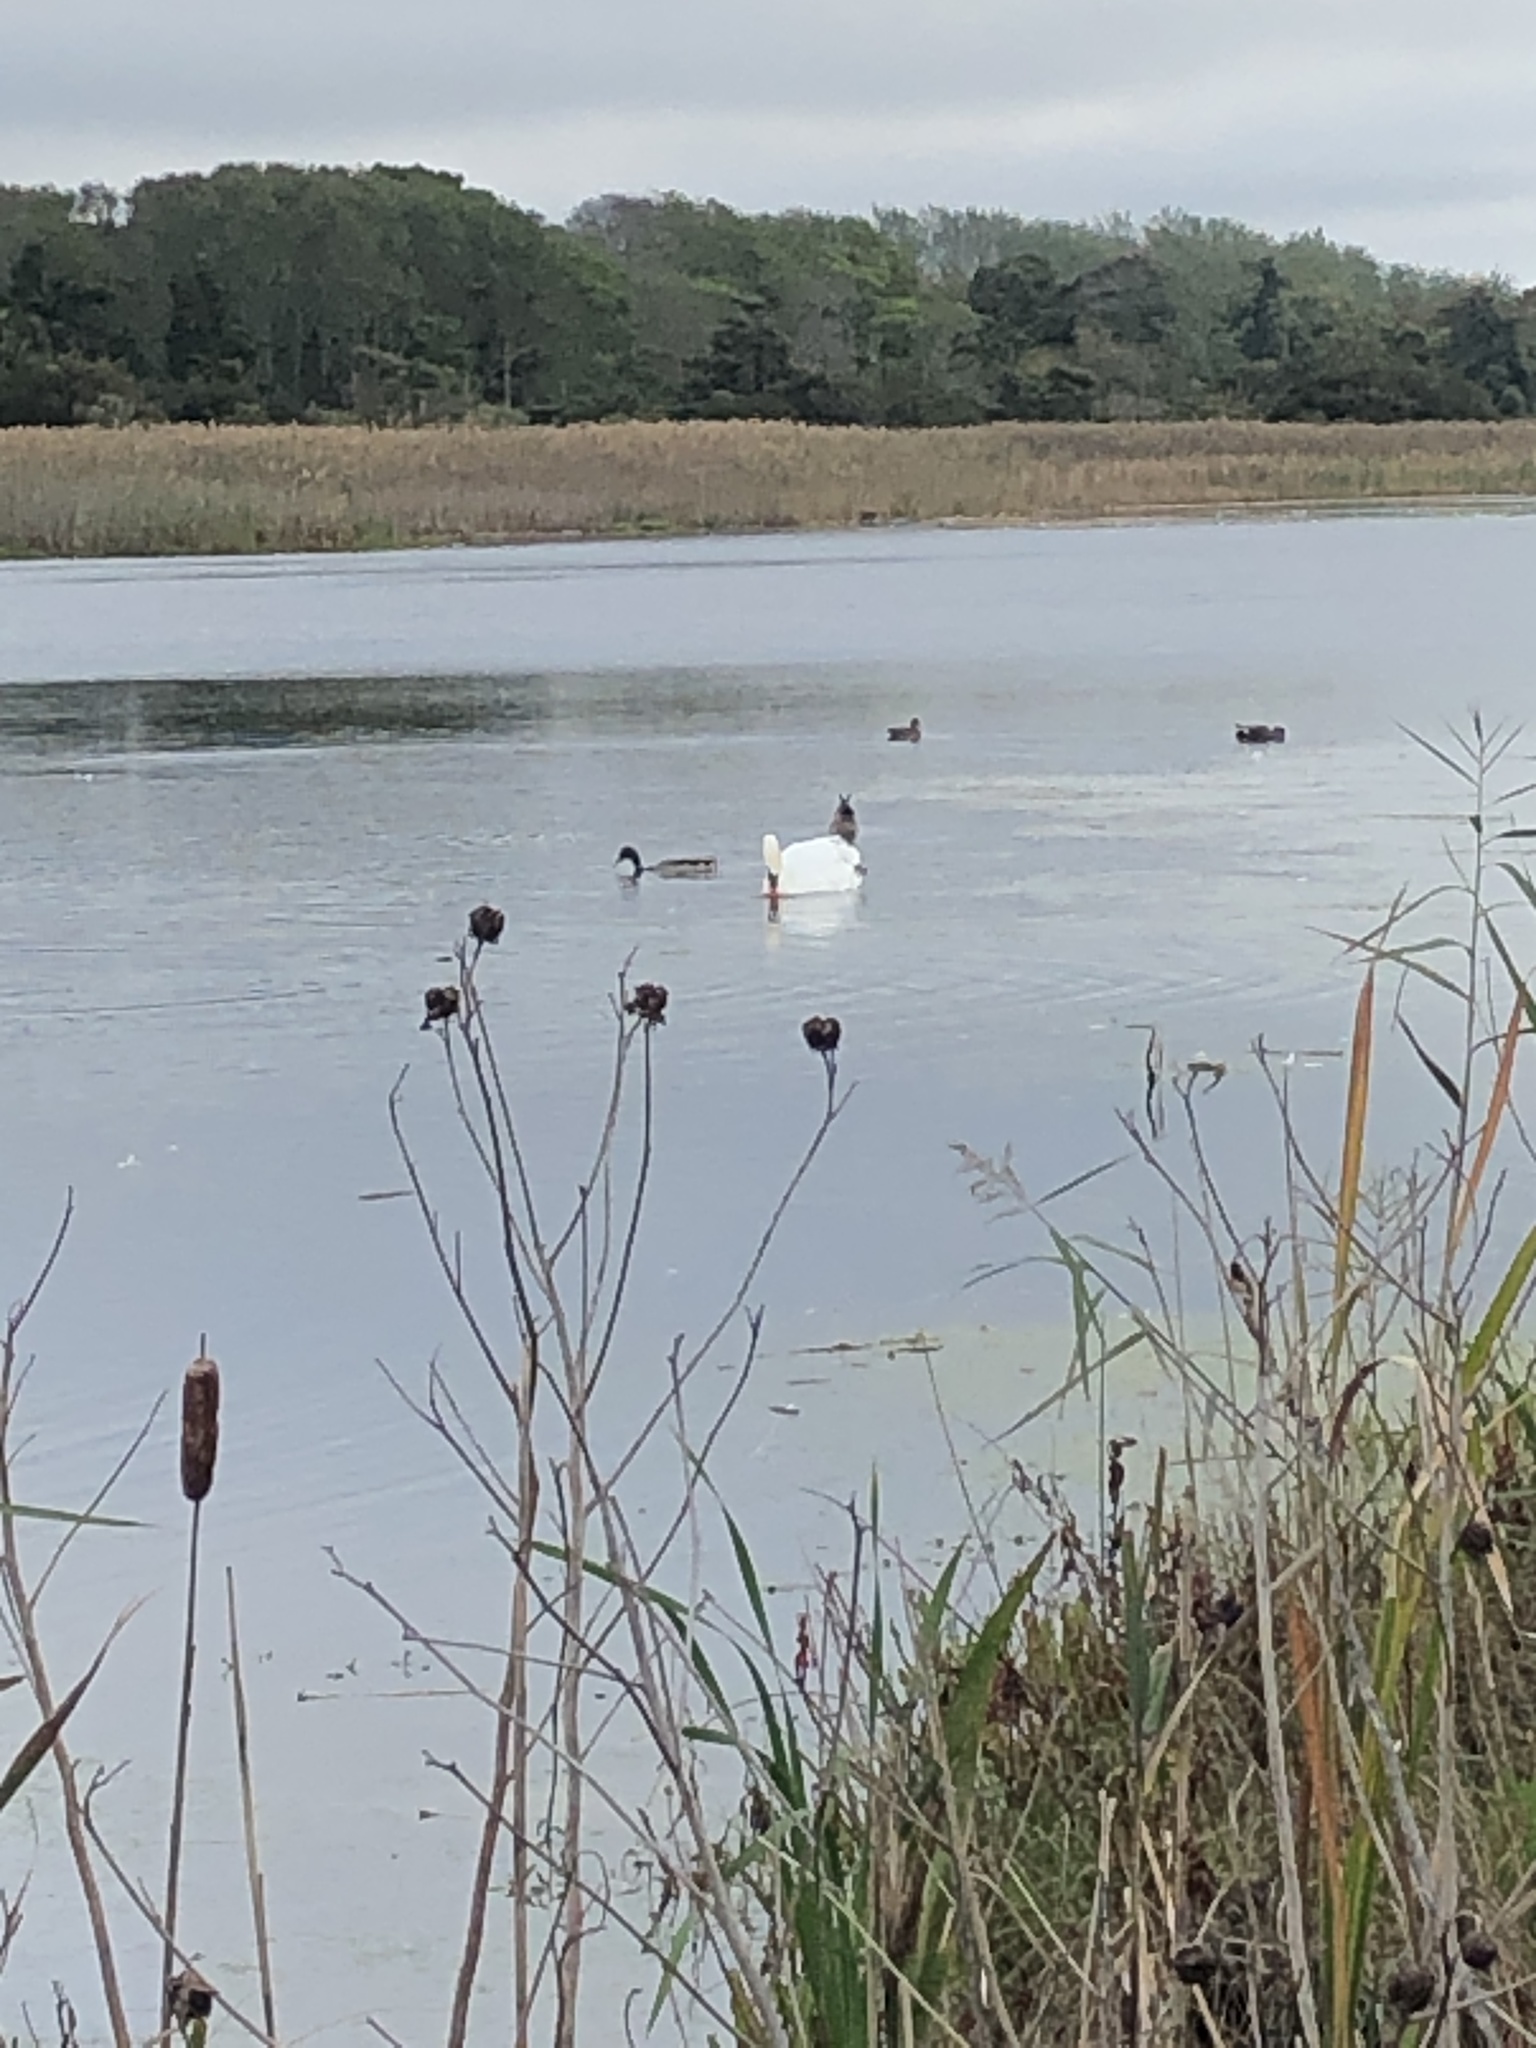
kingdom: Animalia
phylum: Chordata
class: Aves
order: Anseriformes
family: Anatidae
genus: Cygnus
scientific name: Cygnus olor
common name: Mute swan
